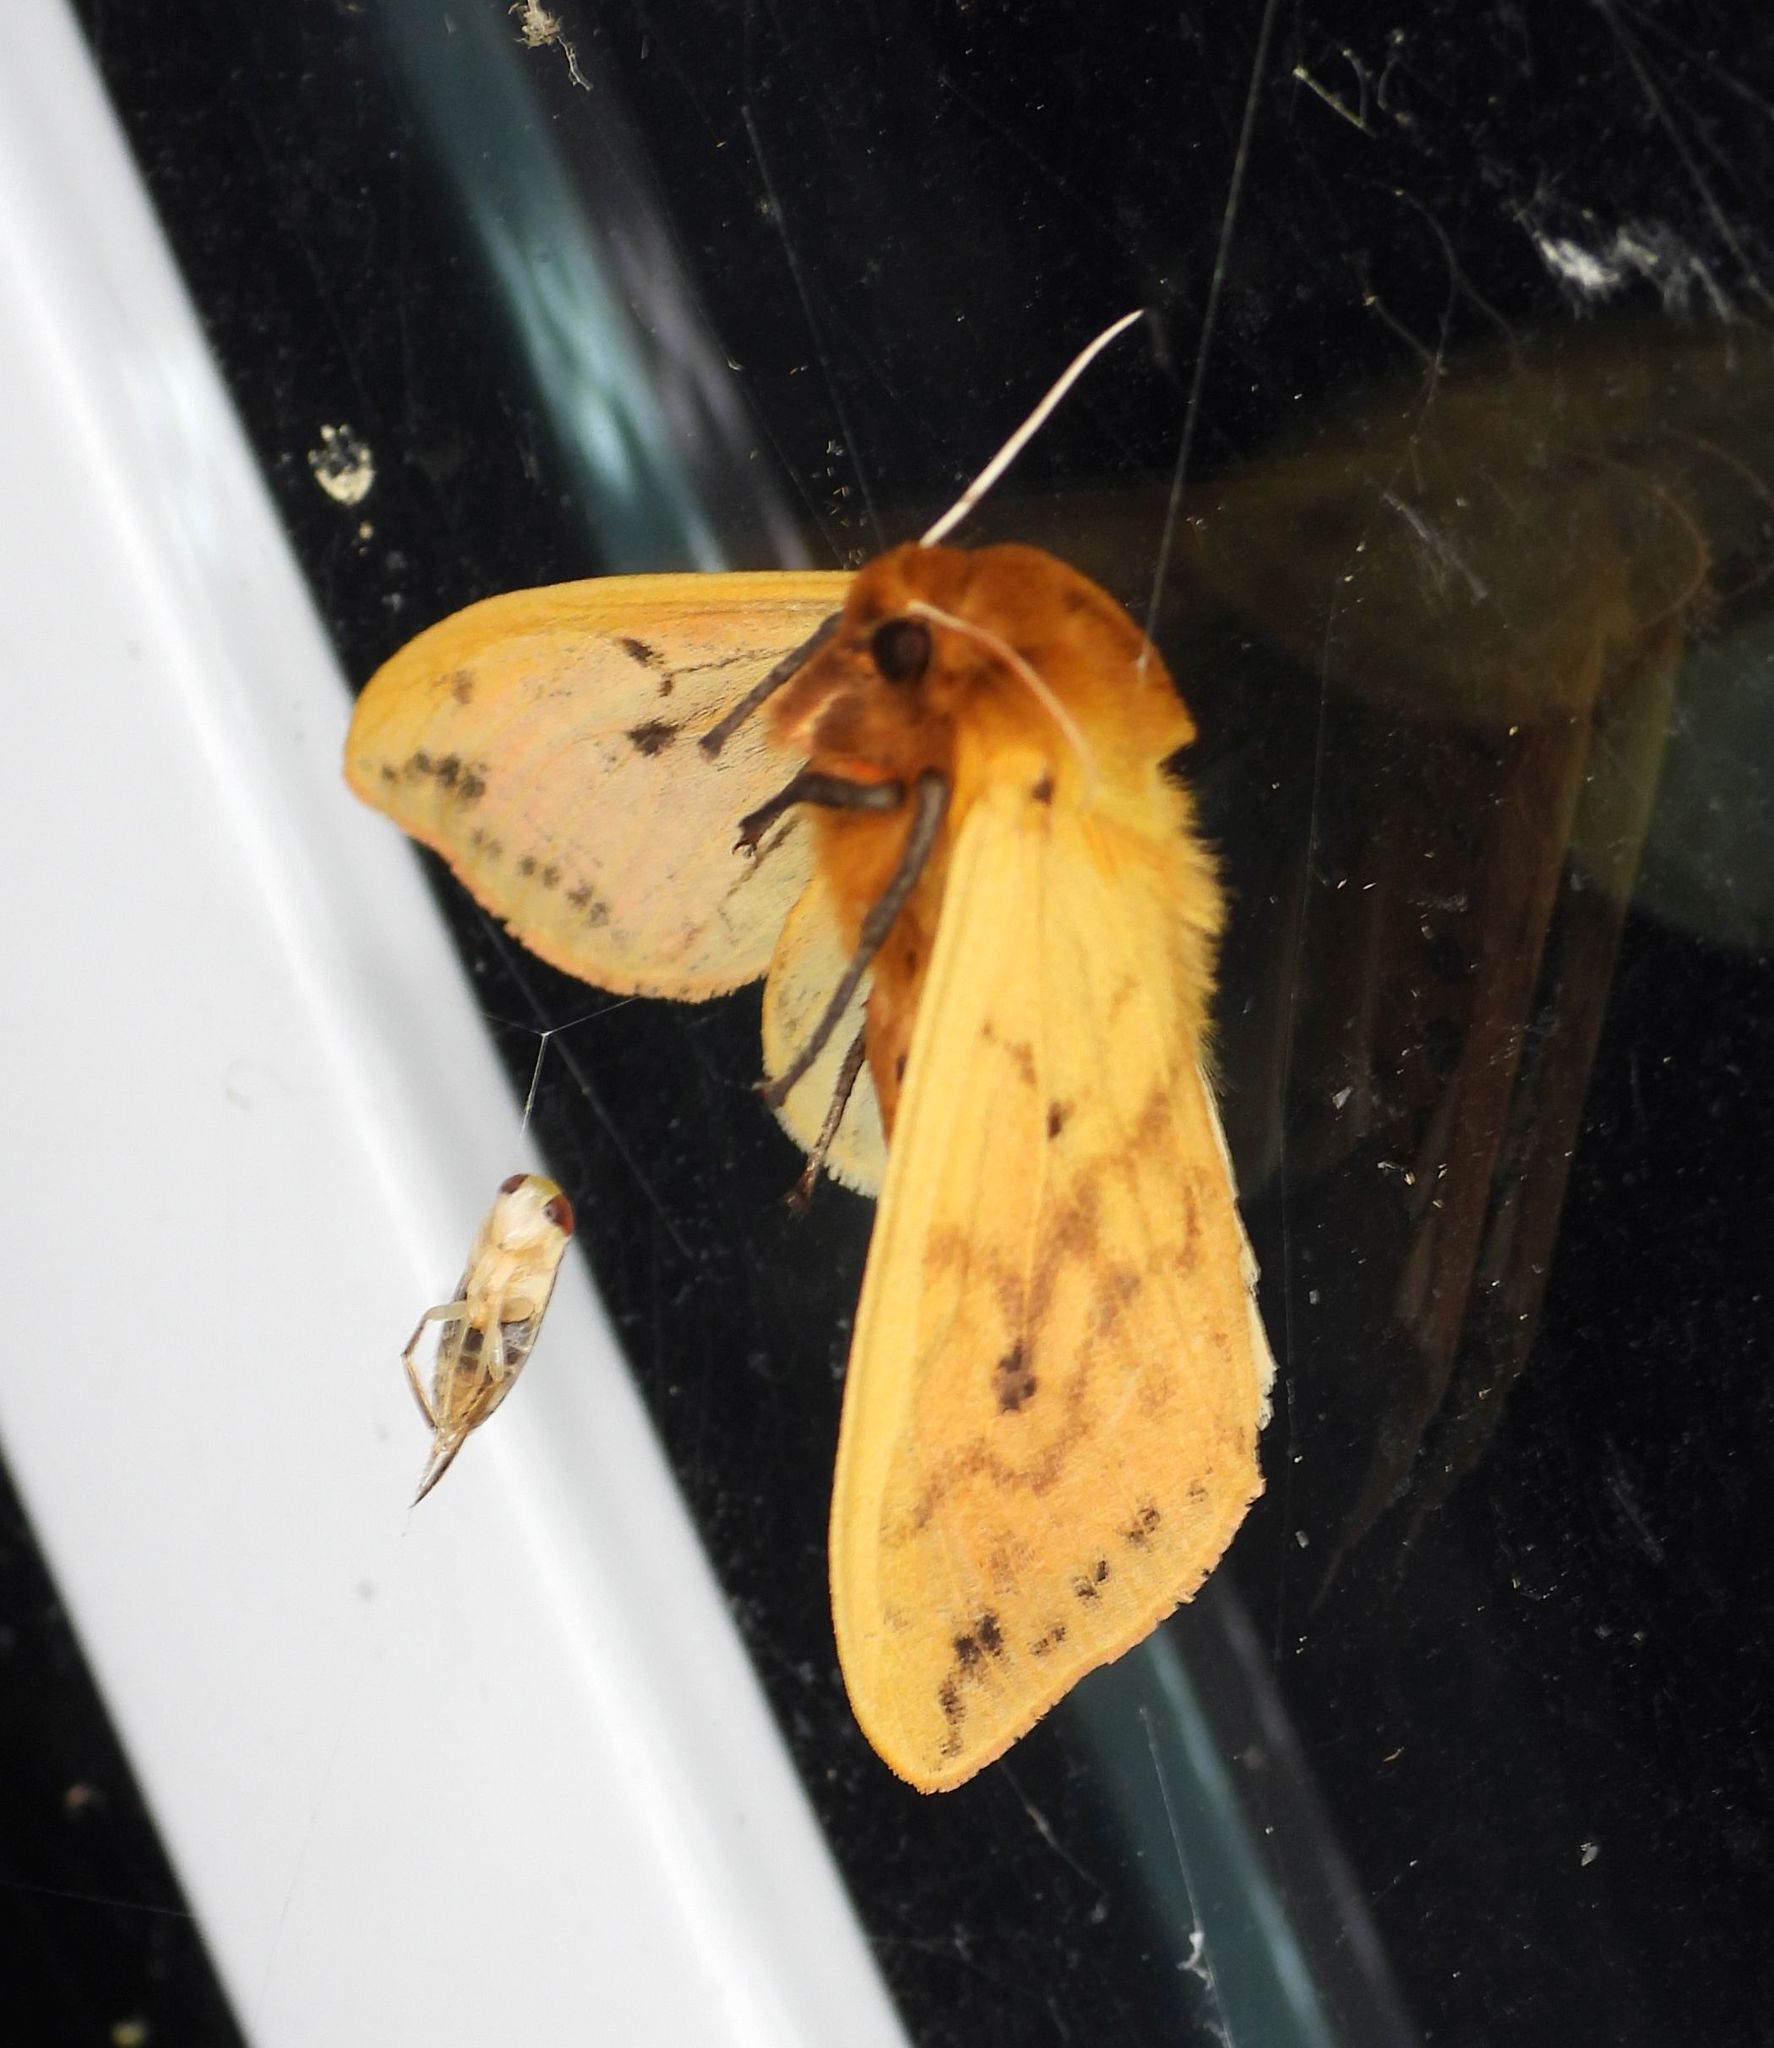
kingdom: Animalia
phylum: Arthropoda
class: Insecta
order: Lepidoptera
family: Erebidae
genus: Pyrrharctia
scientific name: Pyrrharctia isabella
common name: Isabella tiger moth
